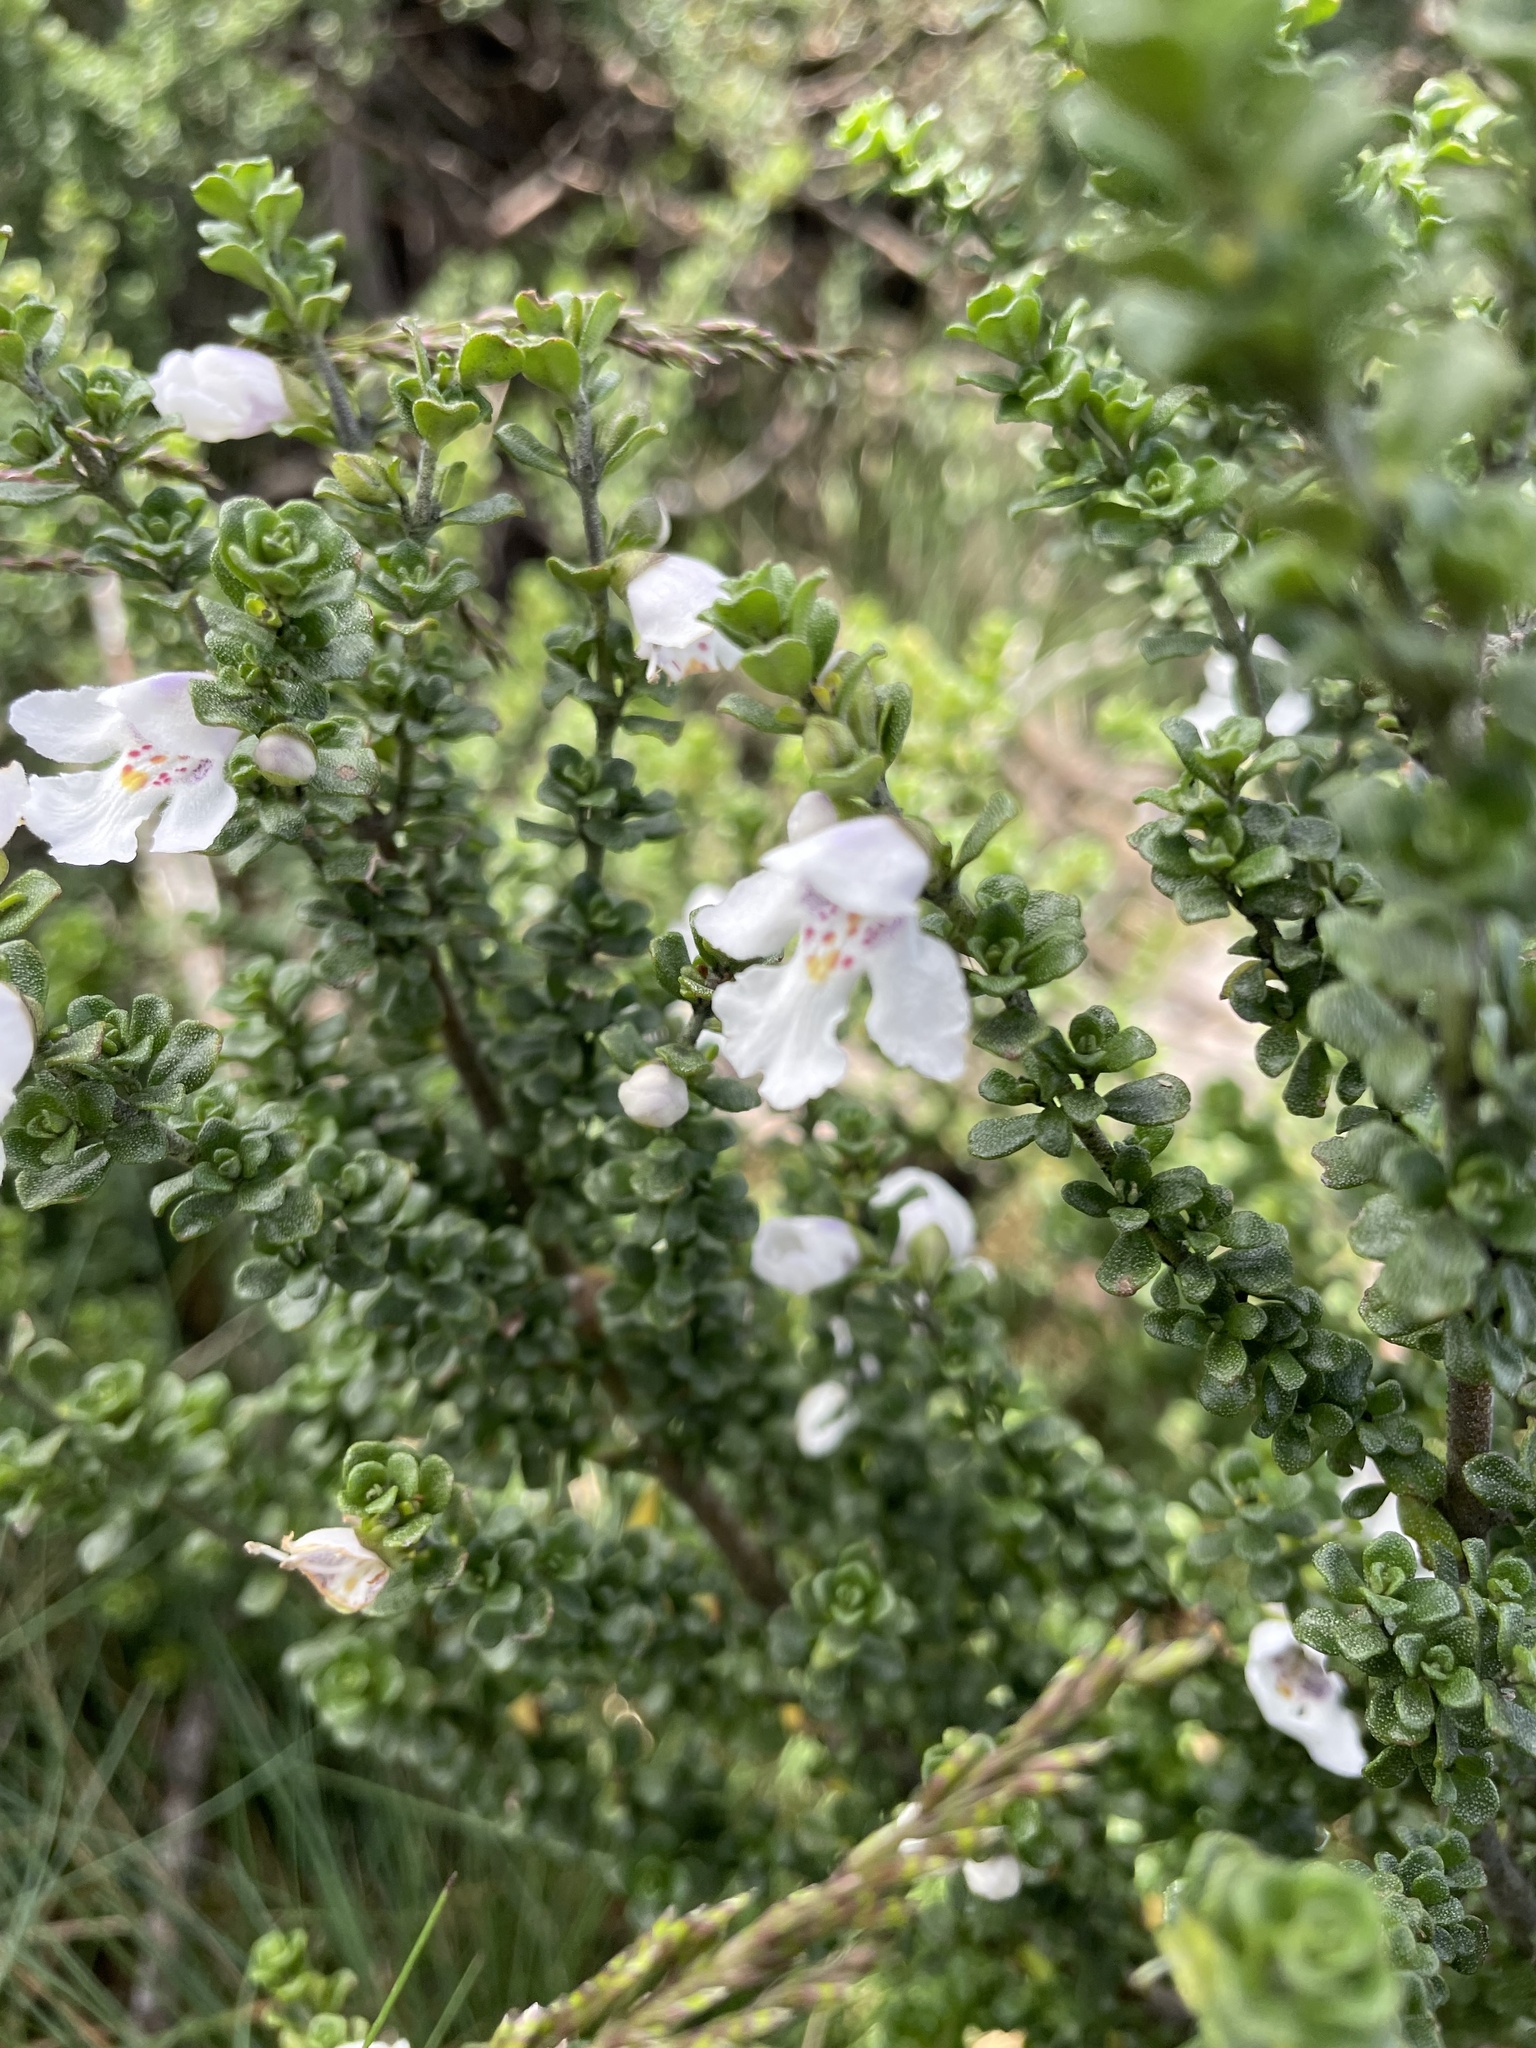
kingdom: Plantae
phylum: Tracheophyta
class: Magnoliopsida
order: Lamiales
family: Lamiaceae
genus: Prostanthera
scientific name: Prostanthera cuneata
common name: Alpine mintbush
